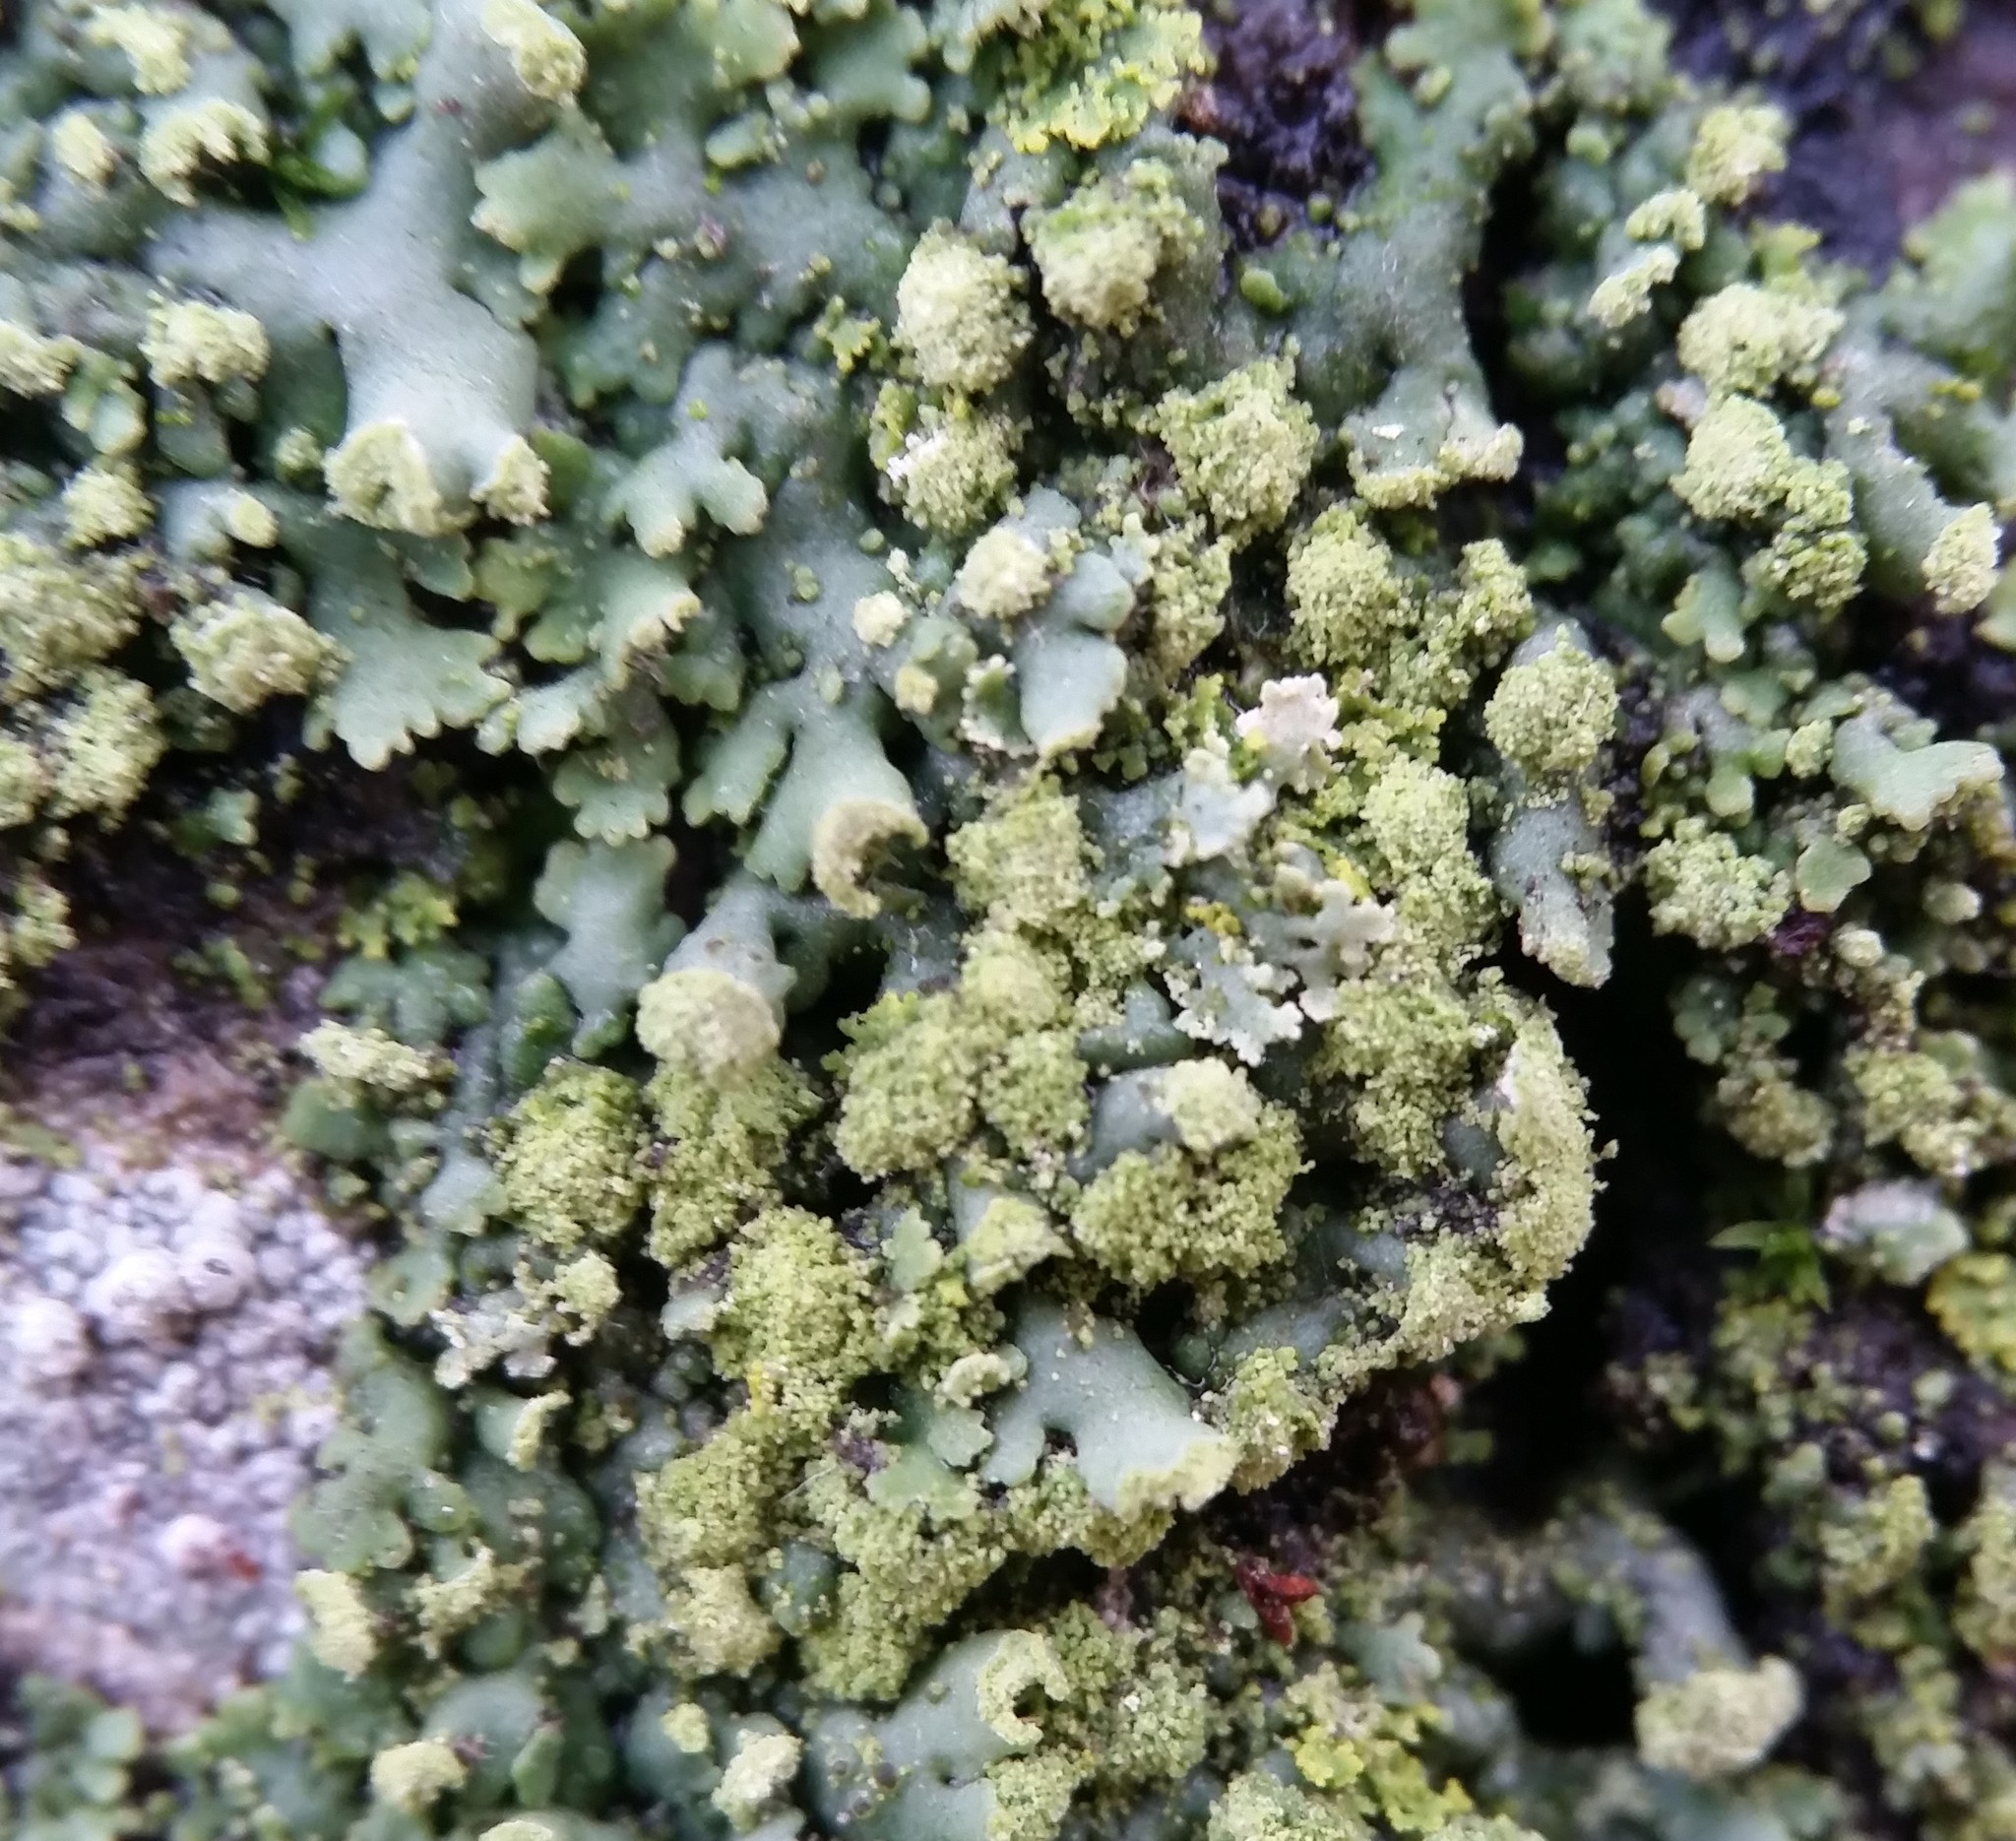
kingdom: Fungi
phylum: Ascomycota
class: Lecanoromycetes
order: Caliciales
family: Physciaceae
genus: Physciella
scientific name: Physciella chloantha
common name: Cryptic rosette lichen
